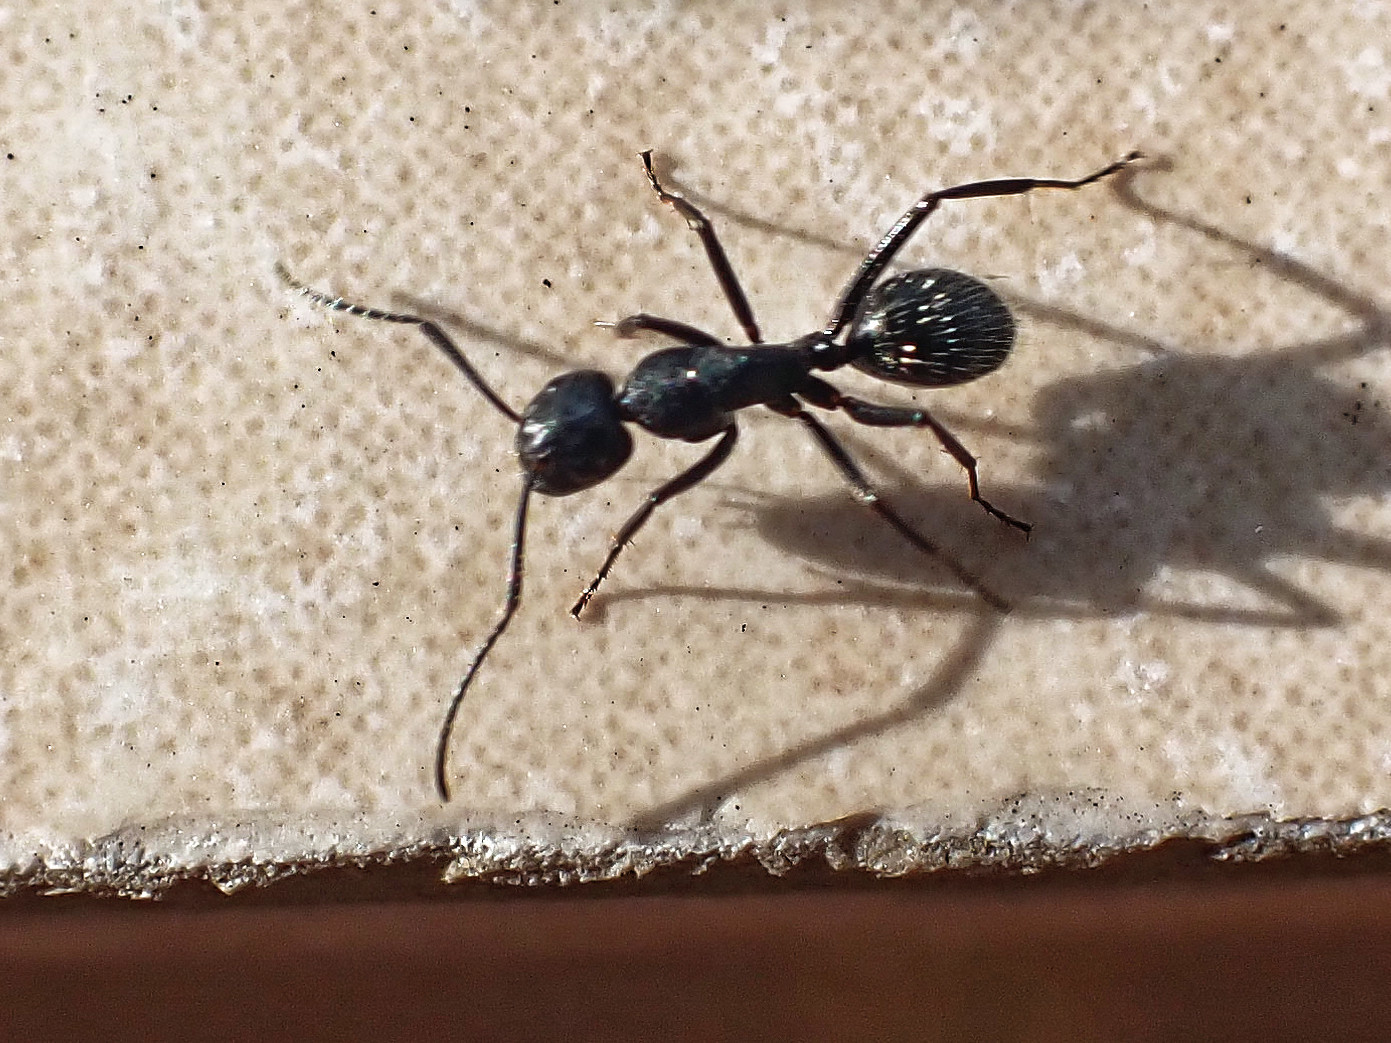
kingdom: Animalia
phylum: Arthropoda
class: Insecta
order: Hymenoptera
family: Formicidae
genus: Camponotus
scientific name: Camponotus vagus
